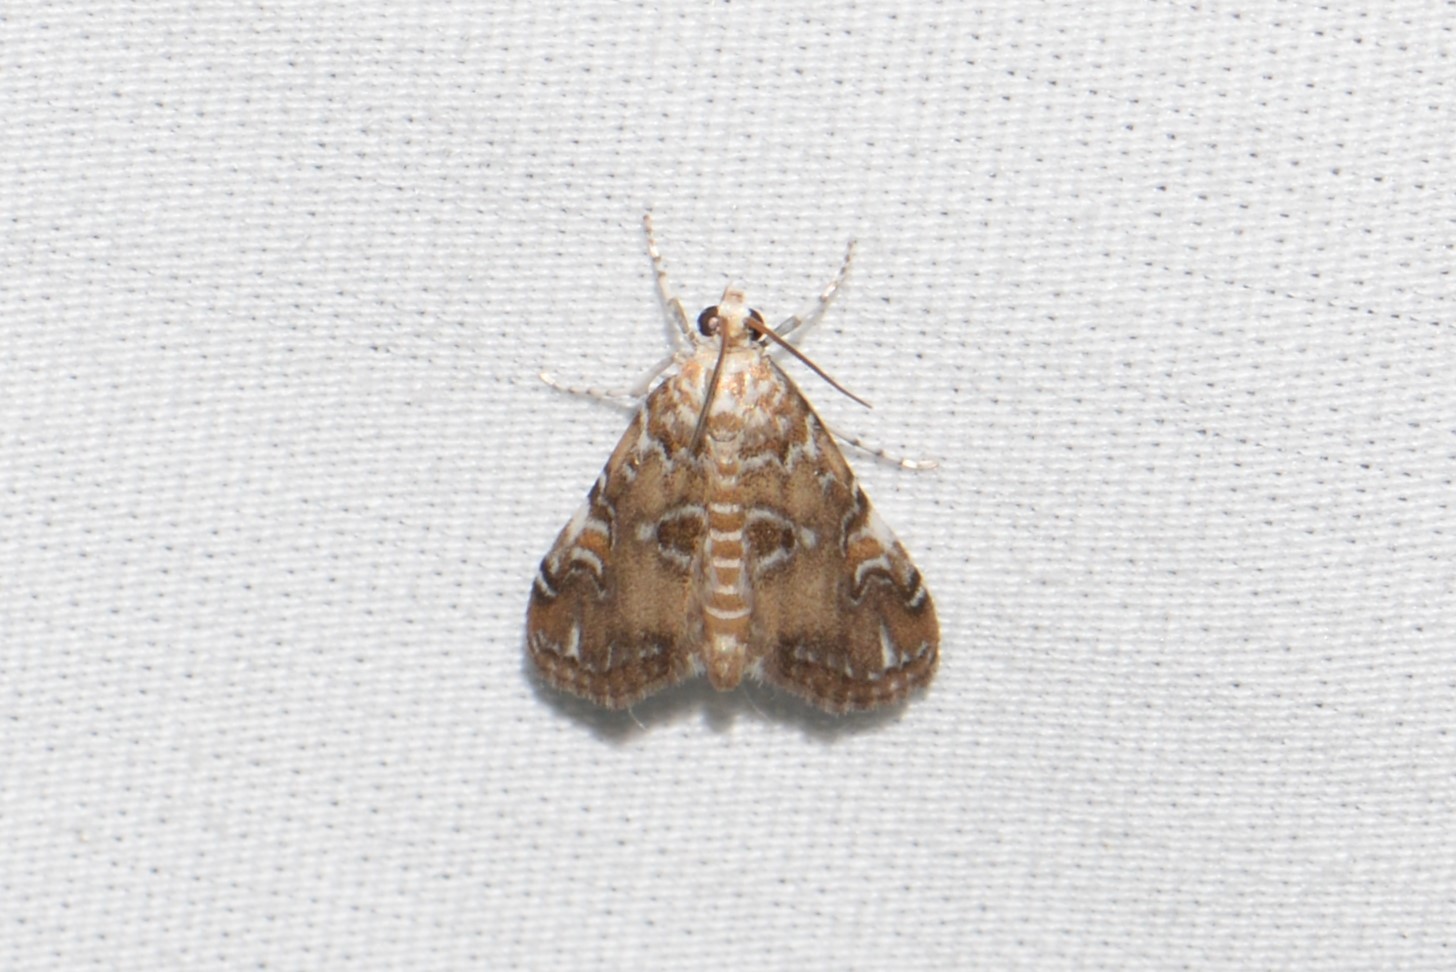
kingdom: Animalia
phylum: Arthropoda
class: Insecta
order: Lepidoptera
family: Crambidae
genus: Elophila
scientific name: Elophila gyralis
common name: Waterlily borer moth
